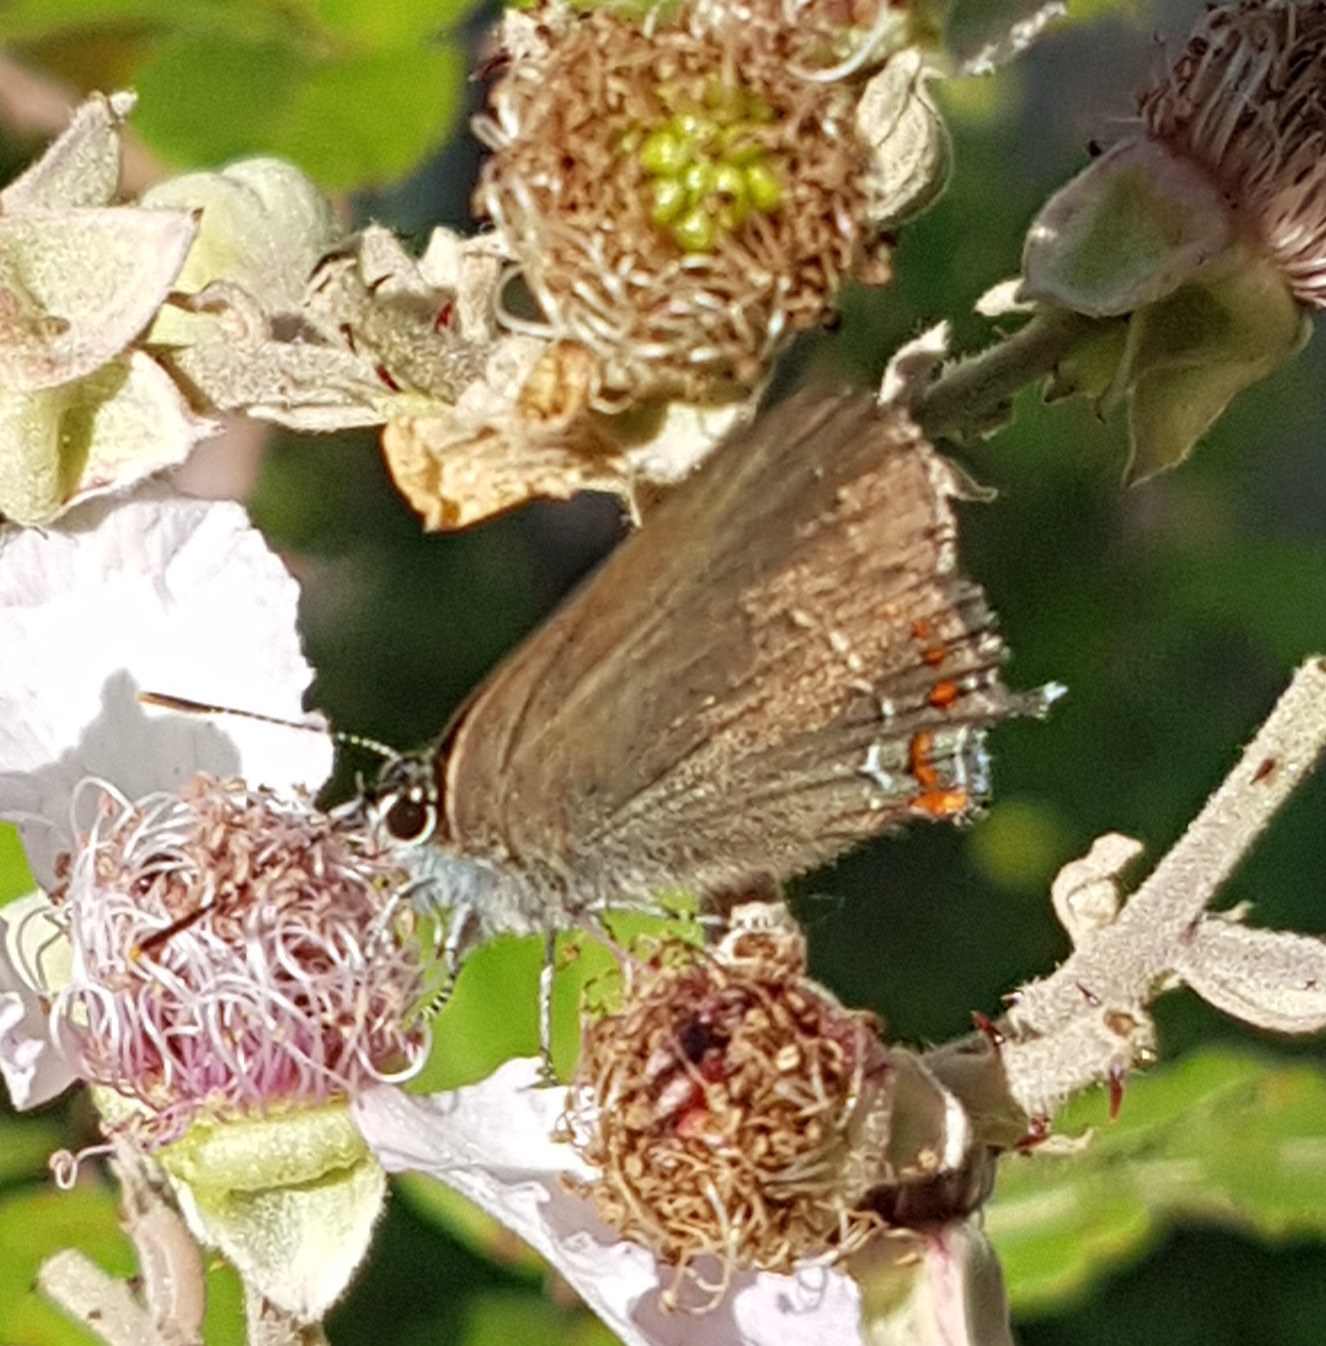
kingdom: Animalia
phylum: Arthropoda
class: Insecta
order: Lepidoptera
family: Lycaenidae
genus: Fixsenia
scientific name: Fixsenia esculi
